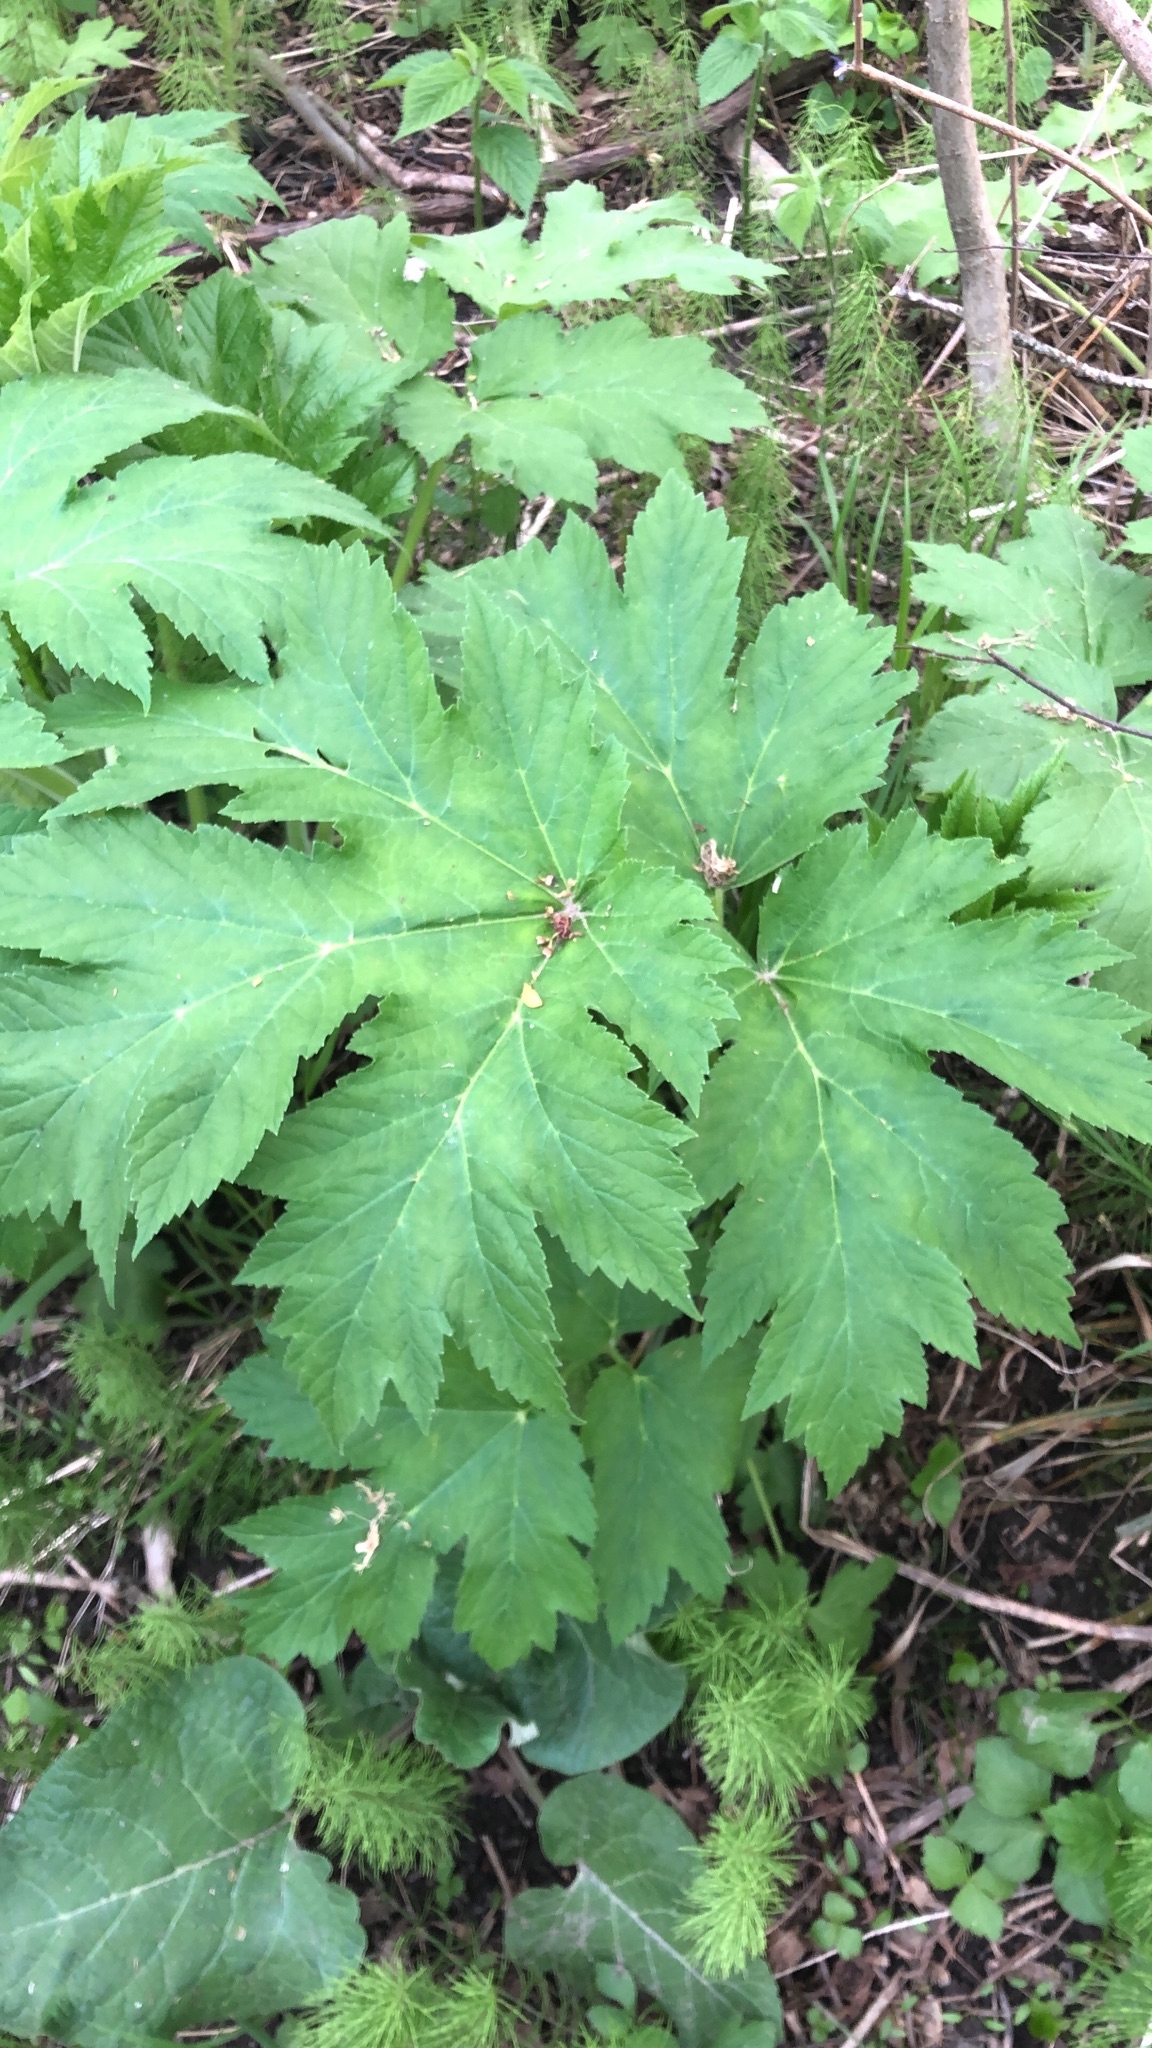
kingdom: Plantae
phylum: Tracheophyta
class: Magnoliopsida
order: Apiales
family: Apiaceae
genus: Heracleum
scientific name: Heracleum maximum
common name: American cow parsnip
